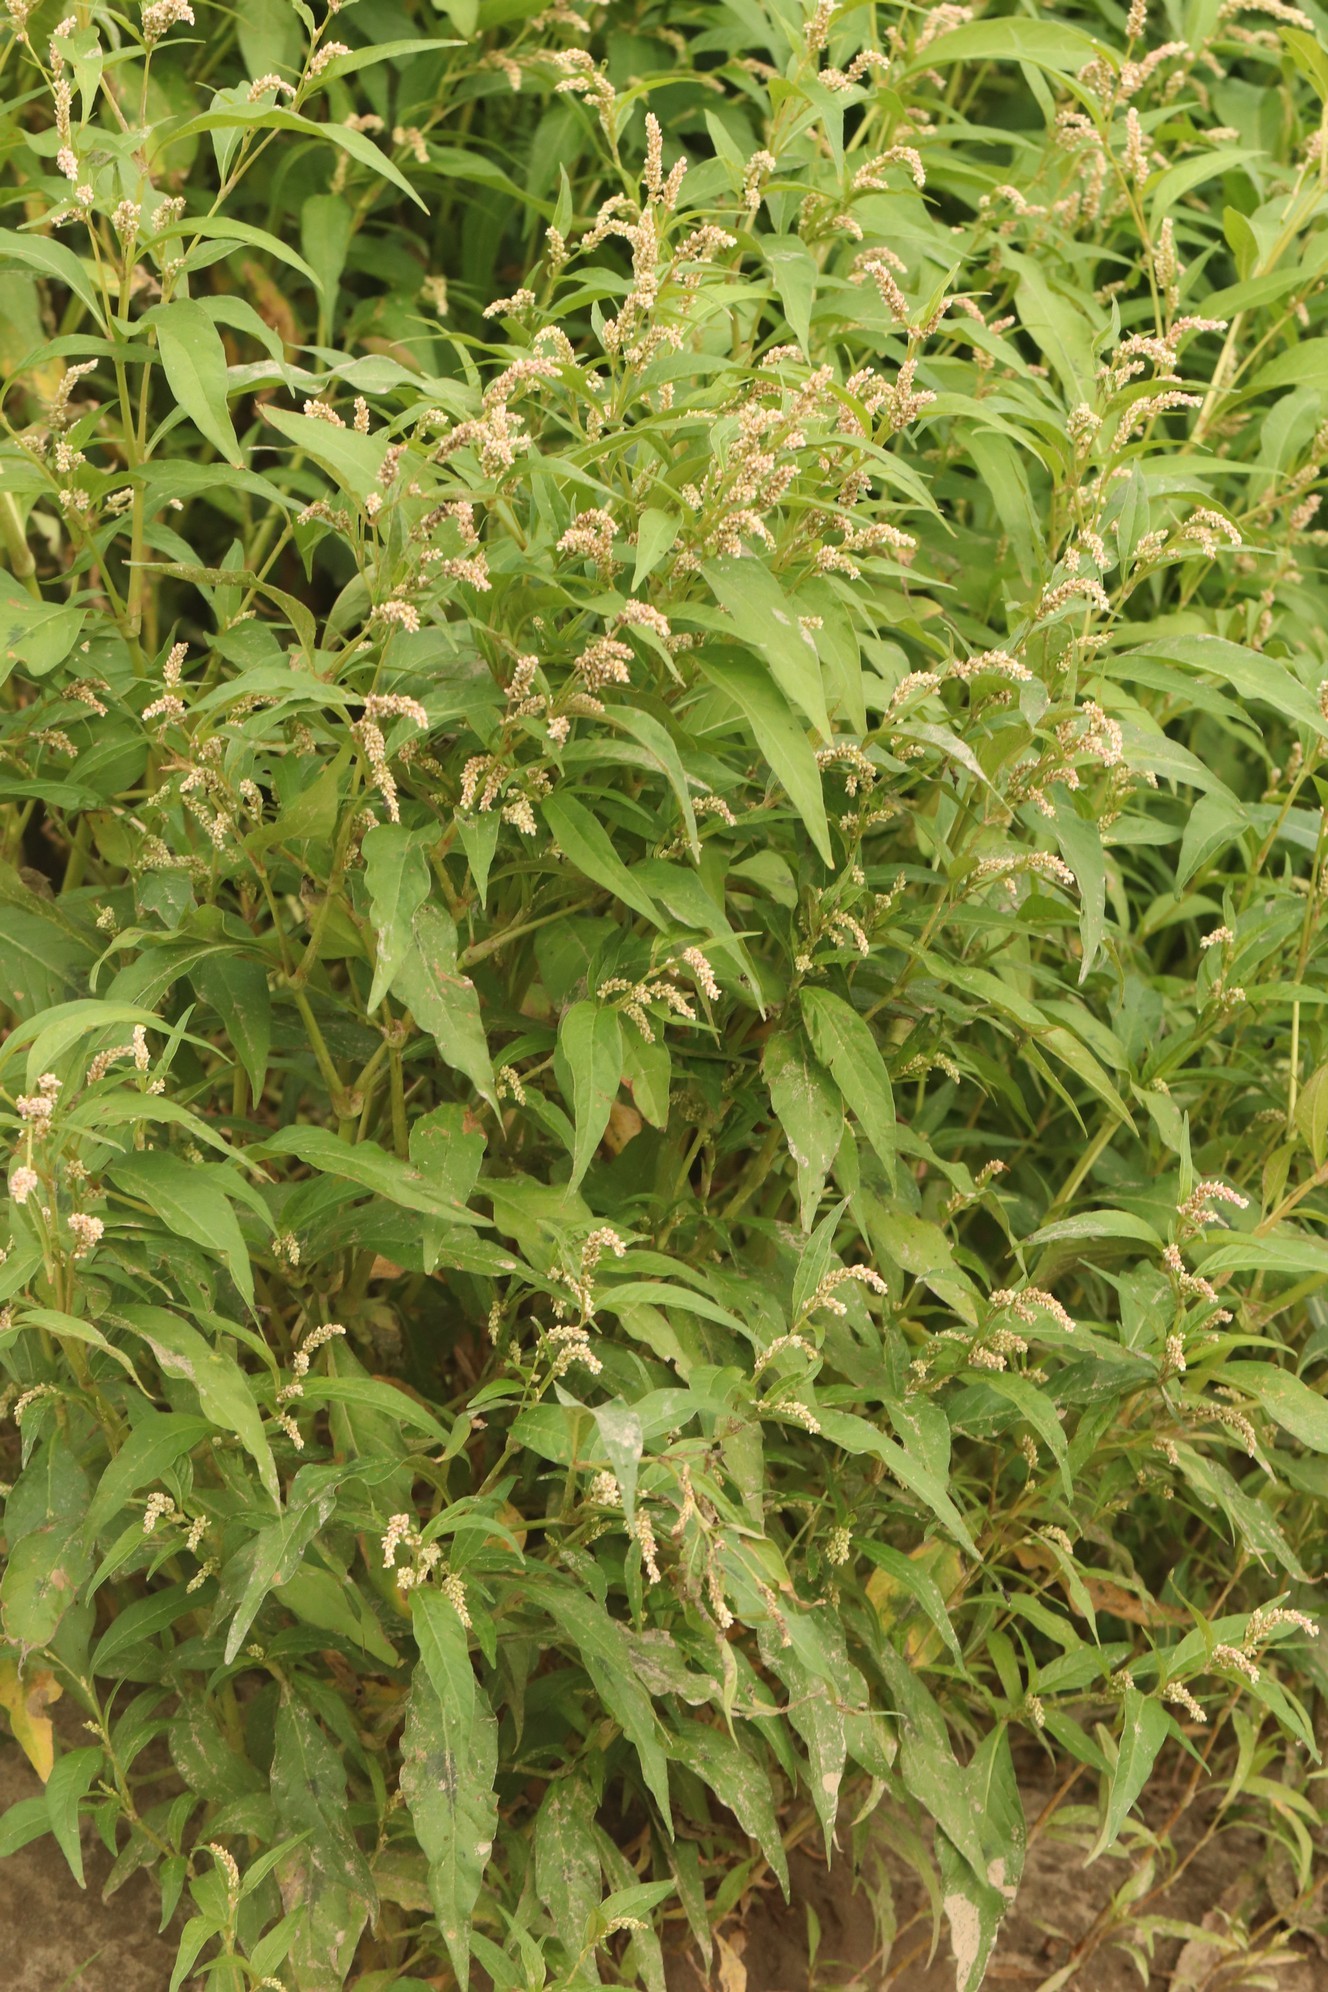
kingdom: Plantae
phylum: Tracheophyta
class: Magnoliopsida
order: Caryophyllales
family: Polygonaceae
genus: Persicaria
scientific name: Persicaria lapathifolia
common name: Curlytop knotweed
